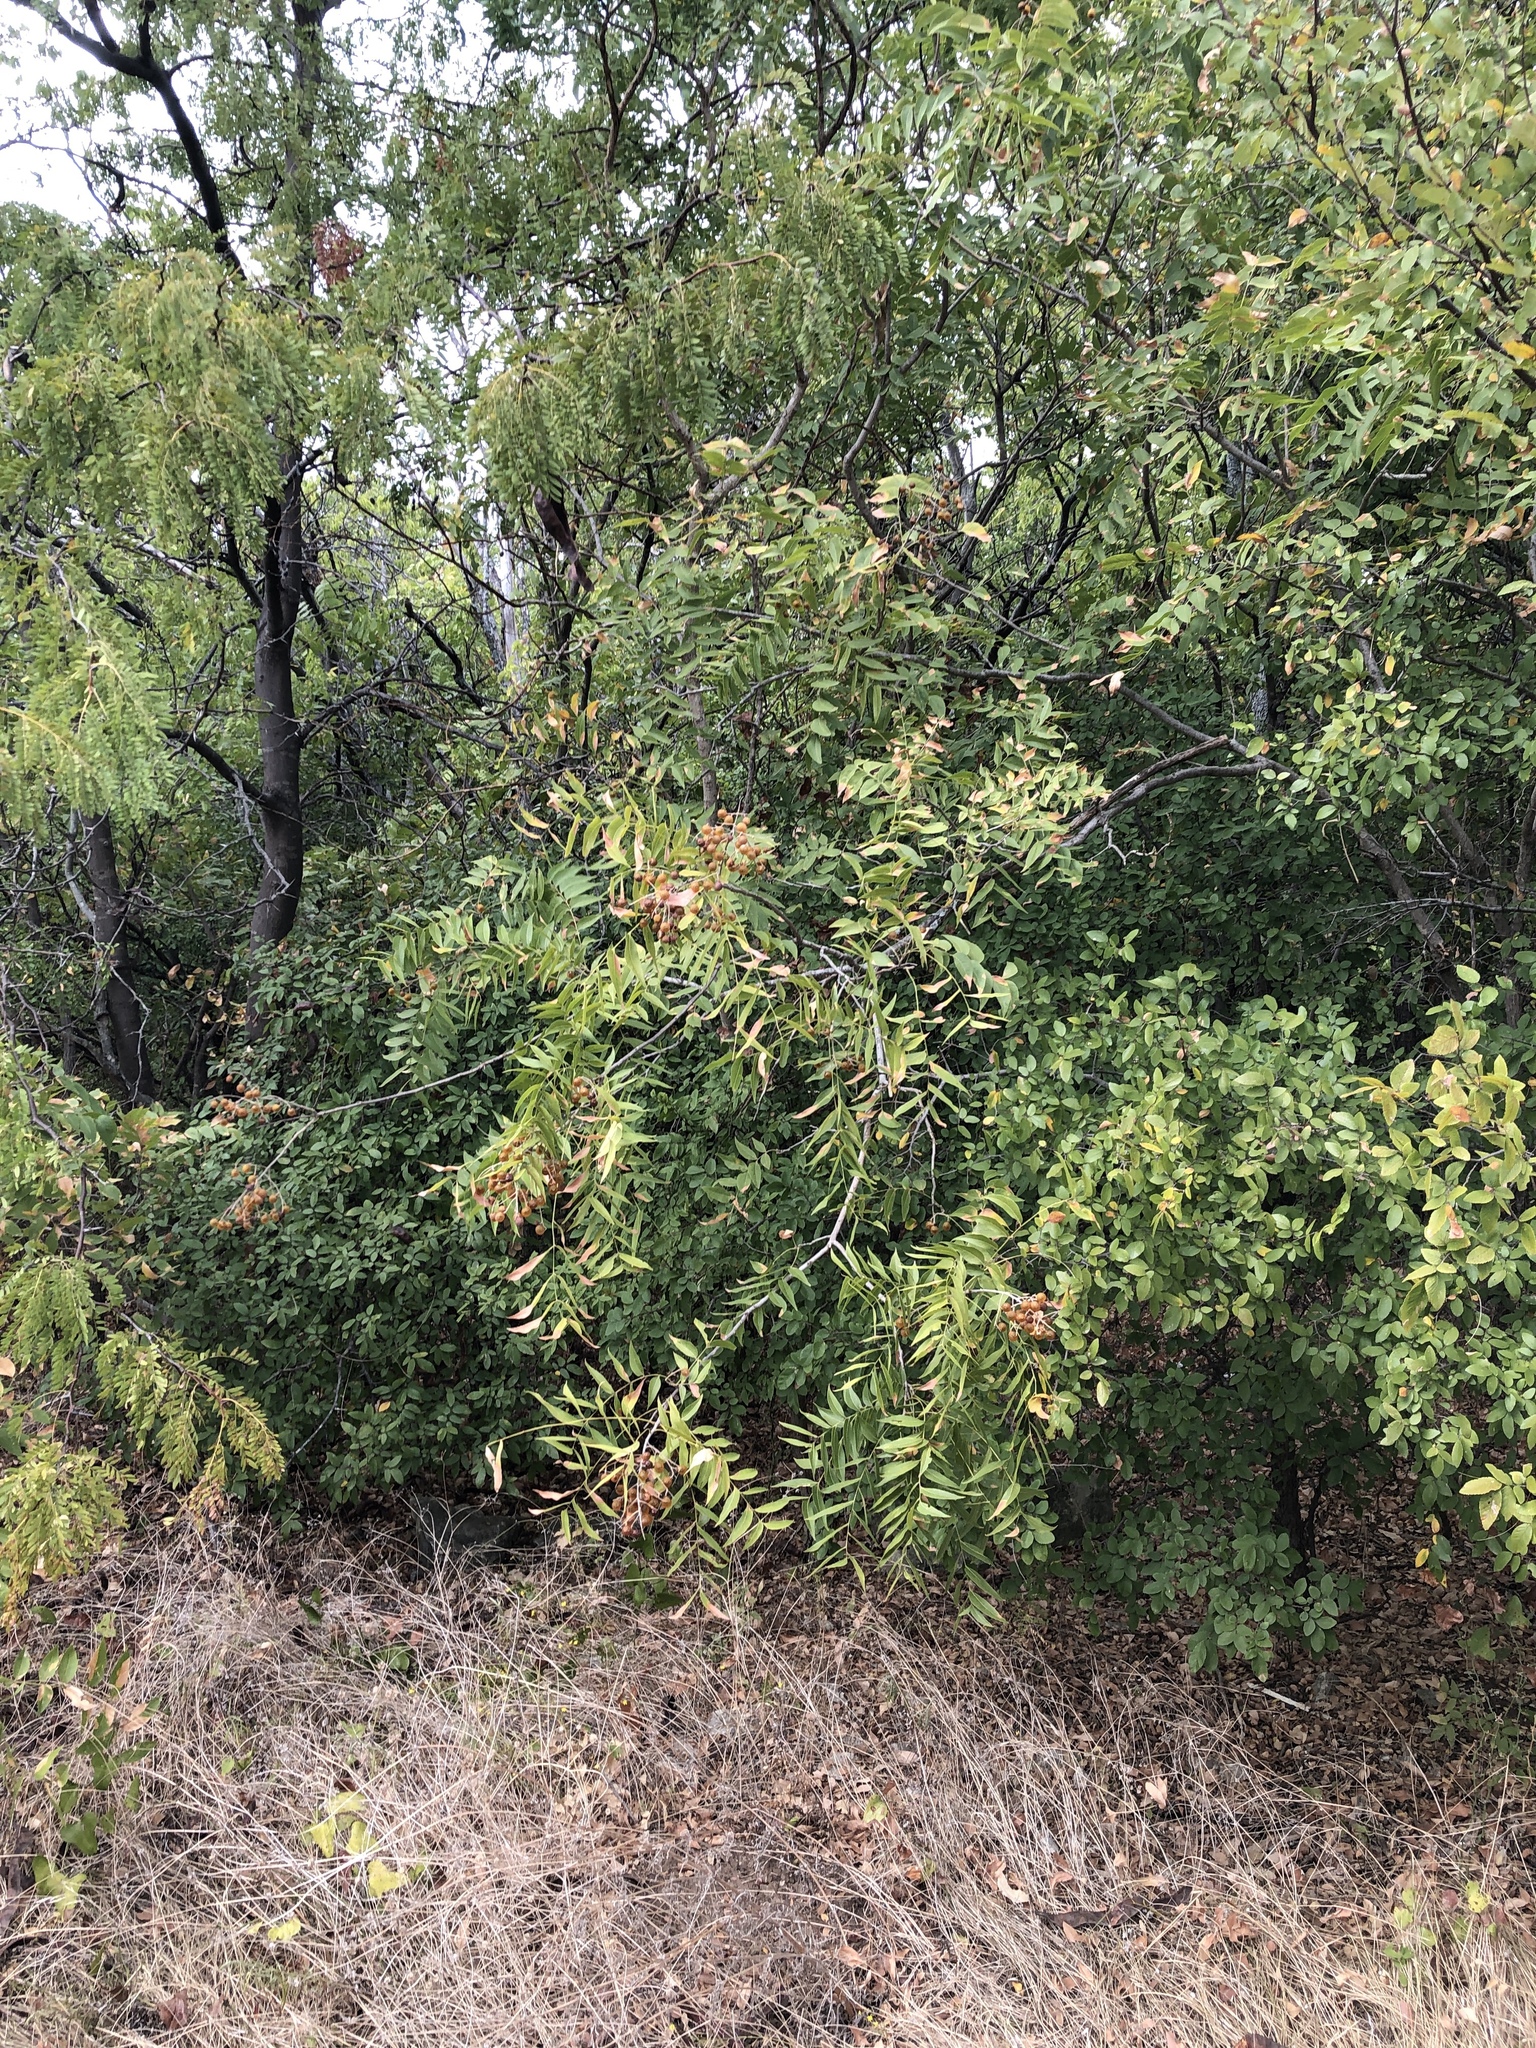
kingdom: Plantae
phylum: Tracheophyta
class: Magnoliopsida
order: Sapindales
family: Sapindaceae
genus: Sapindus
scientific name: Sapindus drummondii
